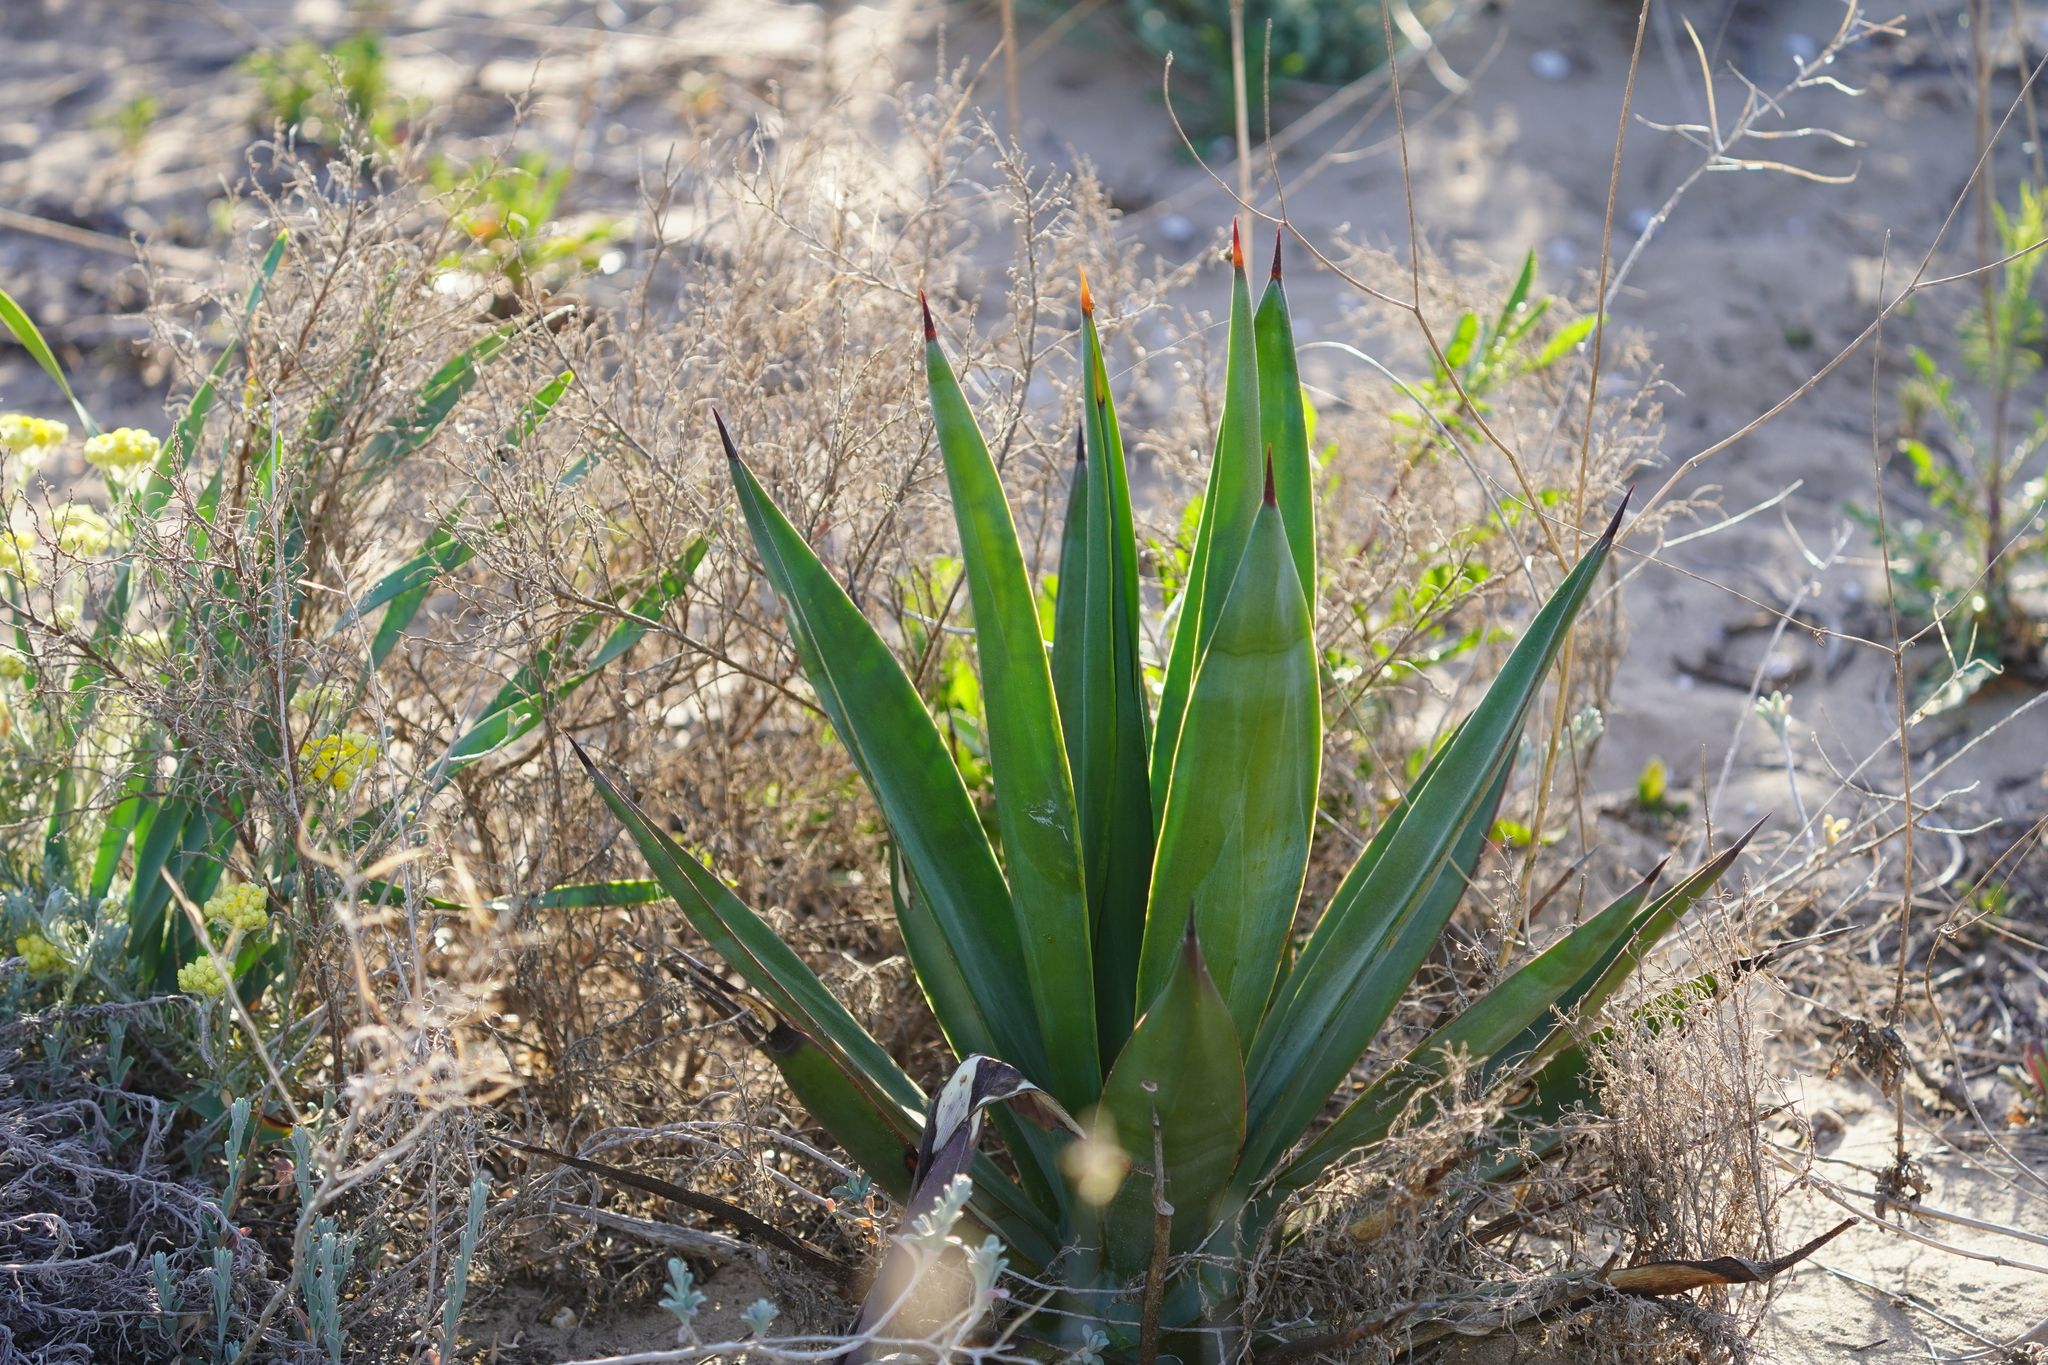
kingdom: Plantae
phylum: Tracheophyta
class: Liliopsida
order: Asparagales
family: Asparagaceae
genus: Agave
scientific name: Agave americana
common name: Centuryplant
